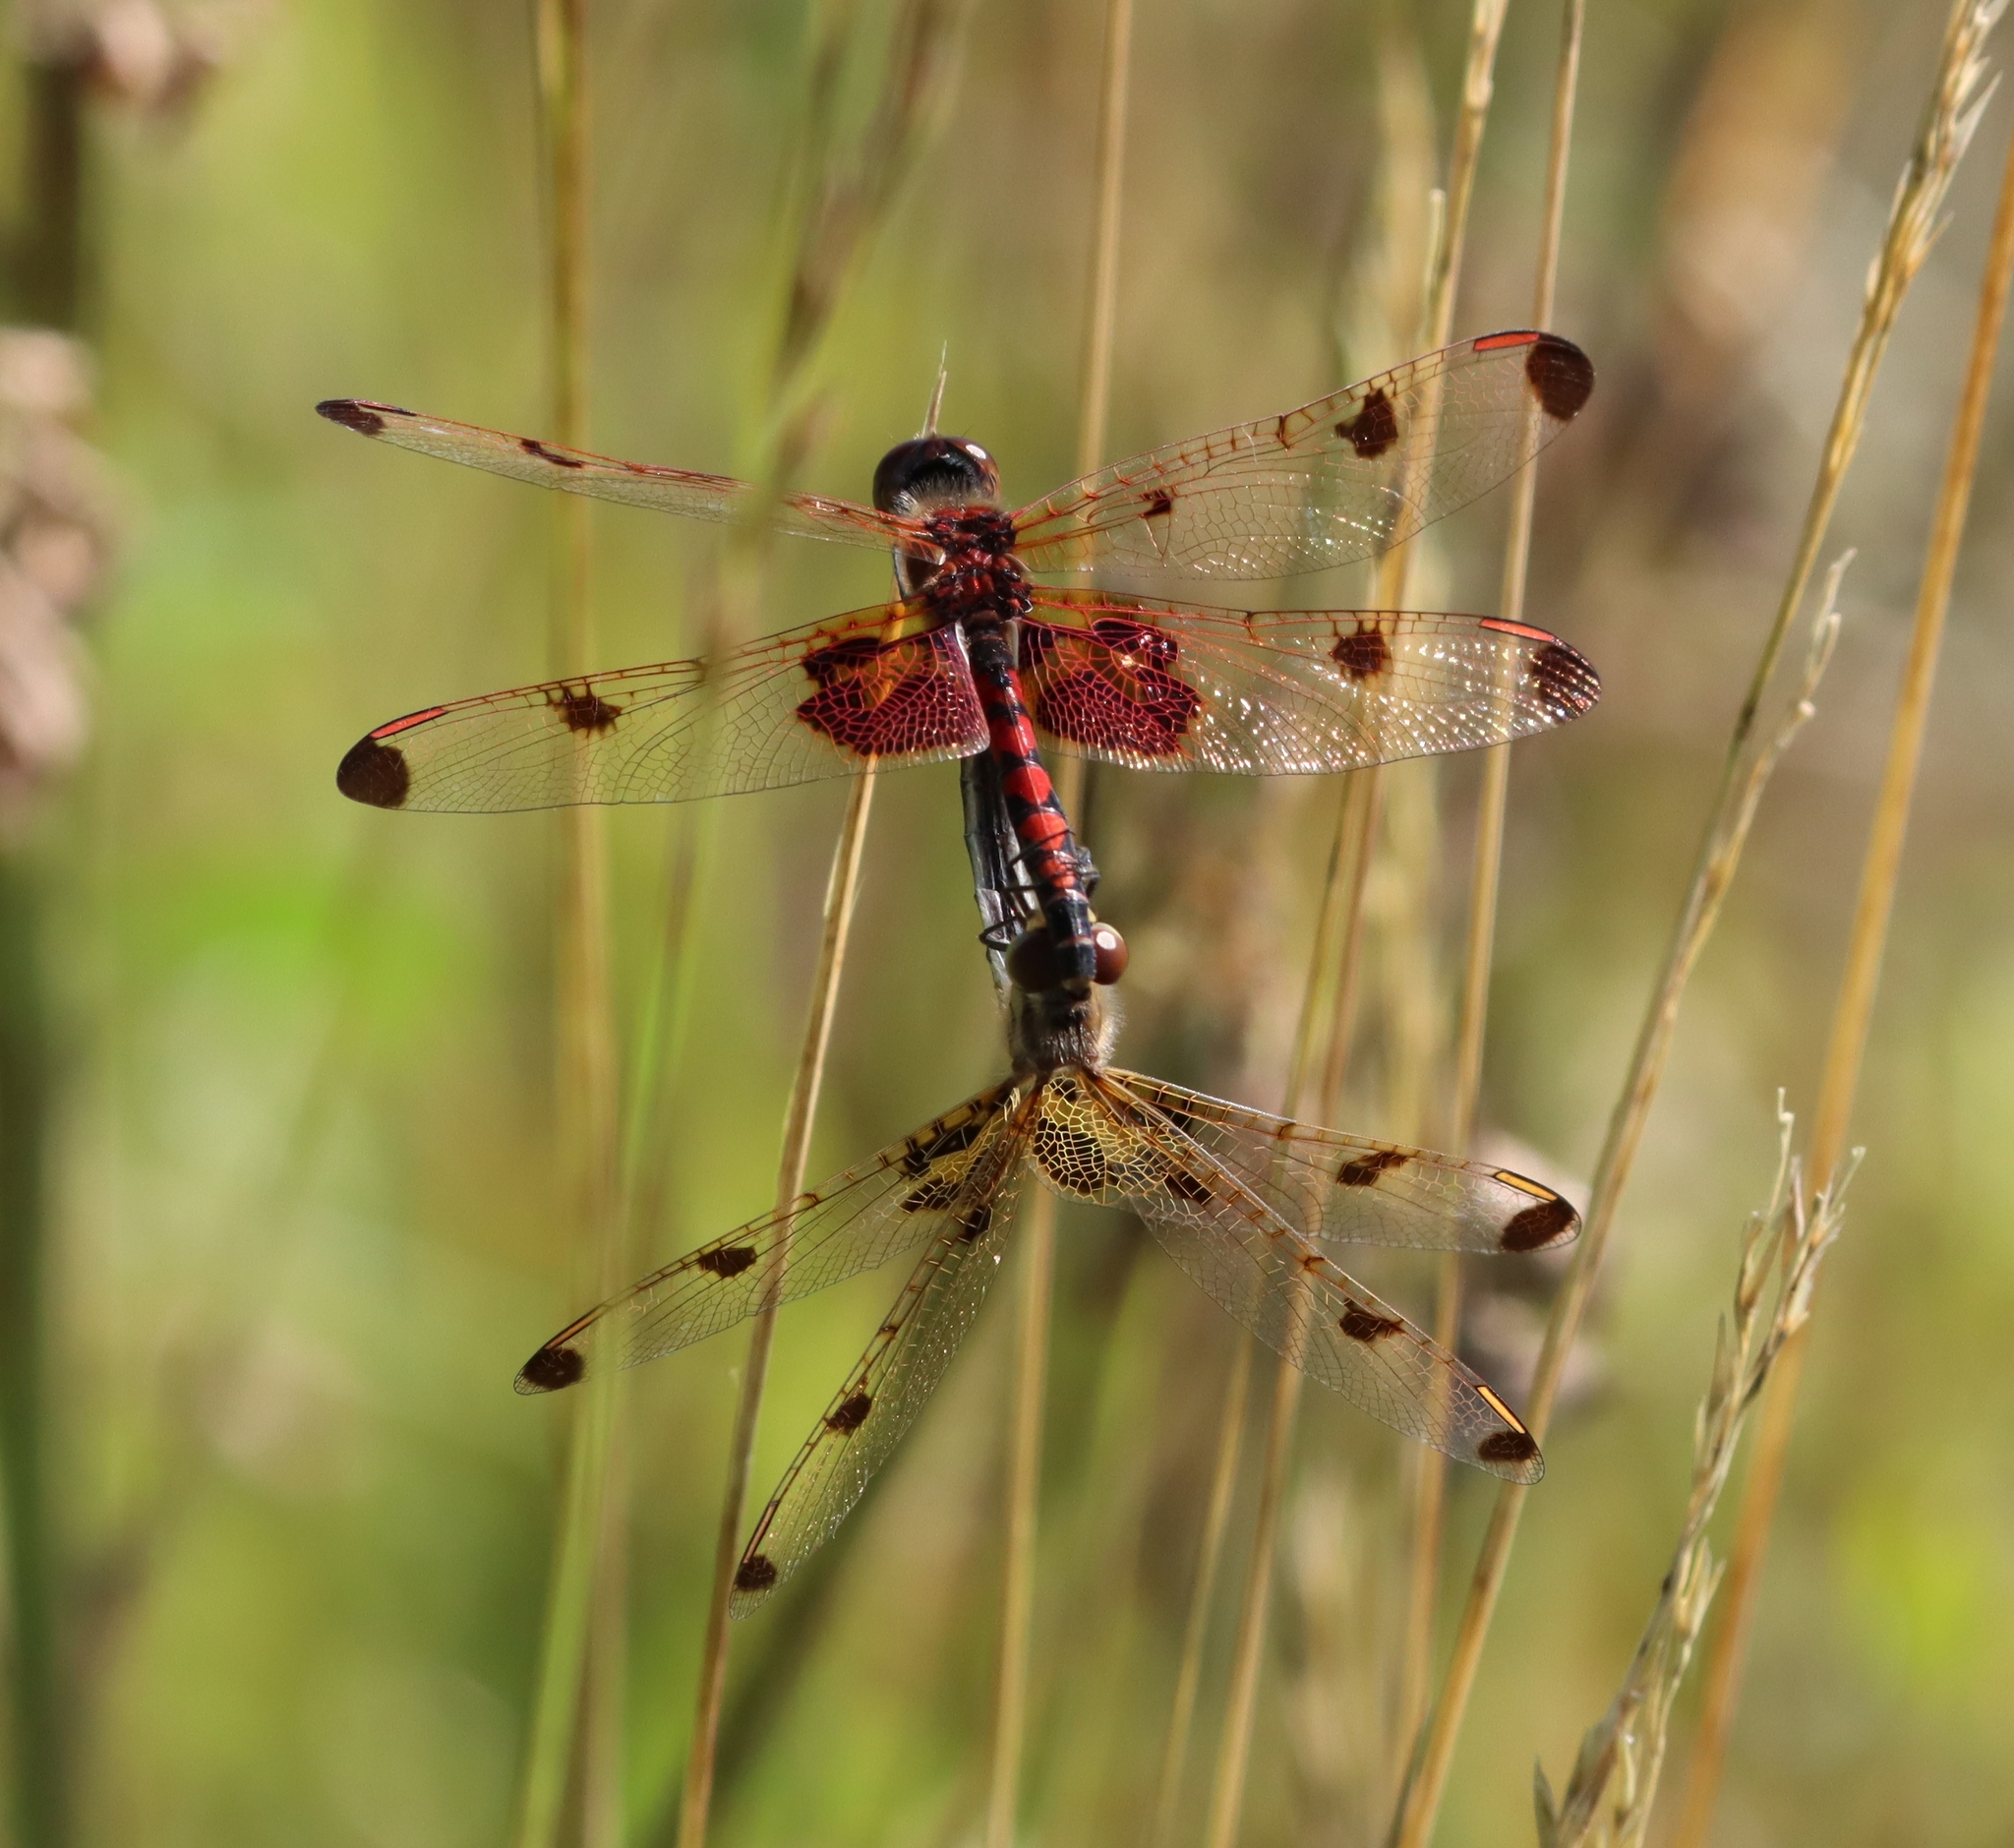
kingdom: Animalia
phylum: Arthropoda
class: Insecta
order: Odonata
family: Libellulidae
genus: Celithemis
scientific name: Celithemis elisa
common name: Calico pennant
